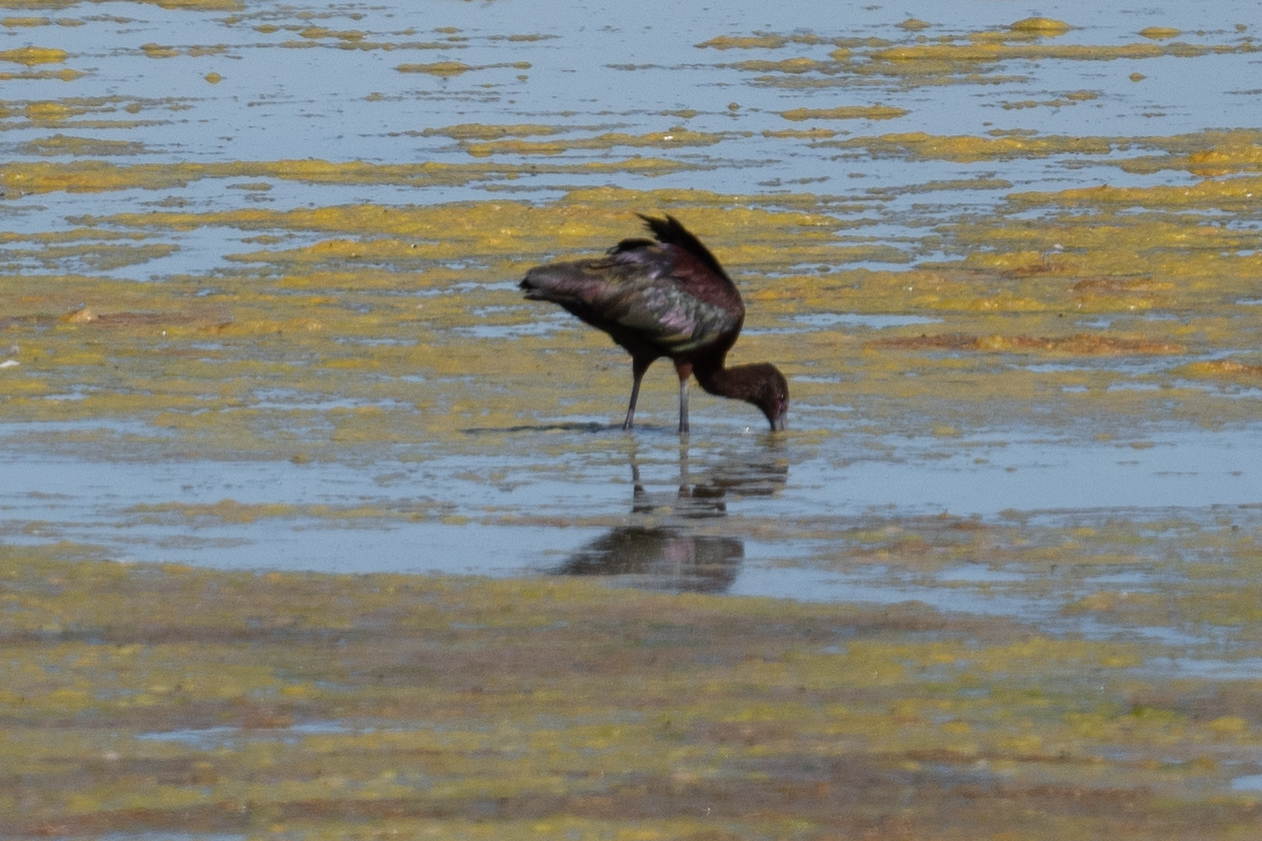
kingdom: Animalia
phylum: Chordata
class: Aves
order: Pelecaniformes
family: Threskiornithidae
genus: Plegadis
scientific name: Plegadis chihi
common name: White-faced ibis
